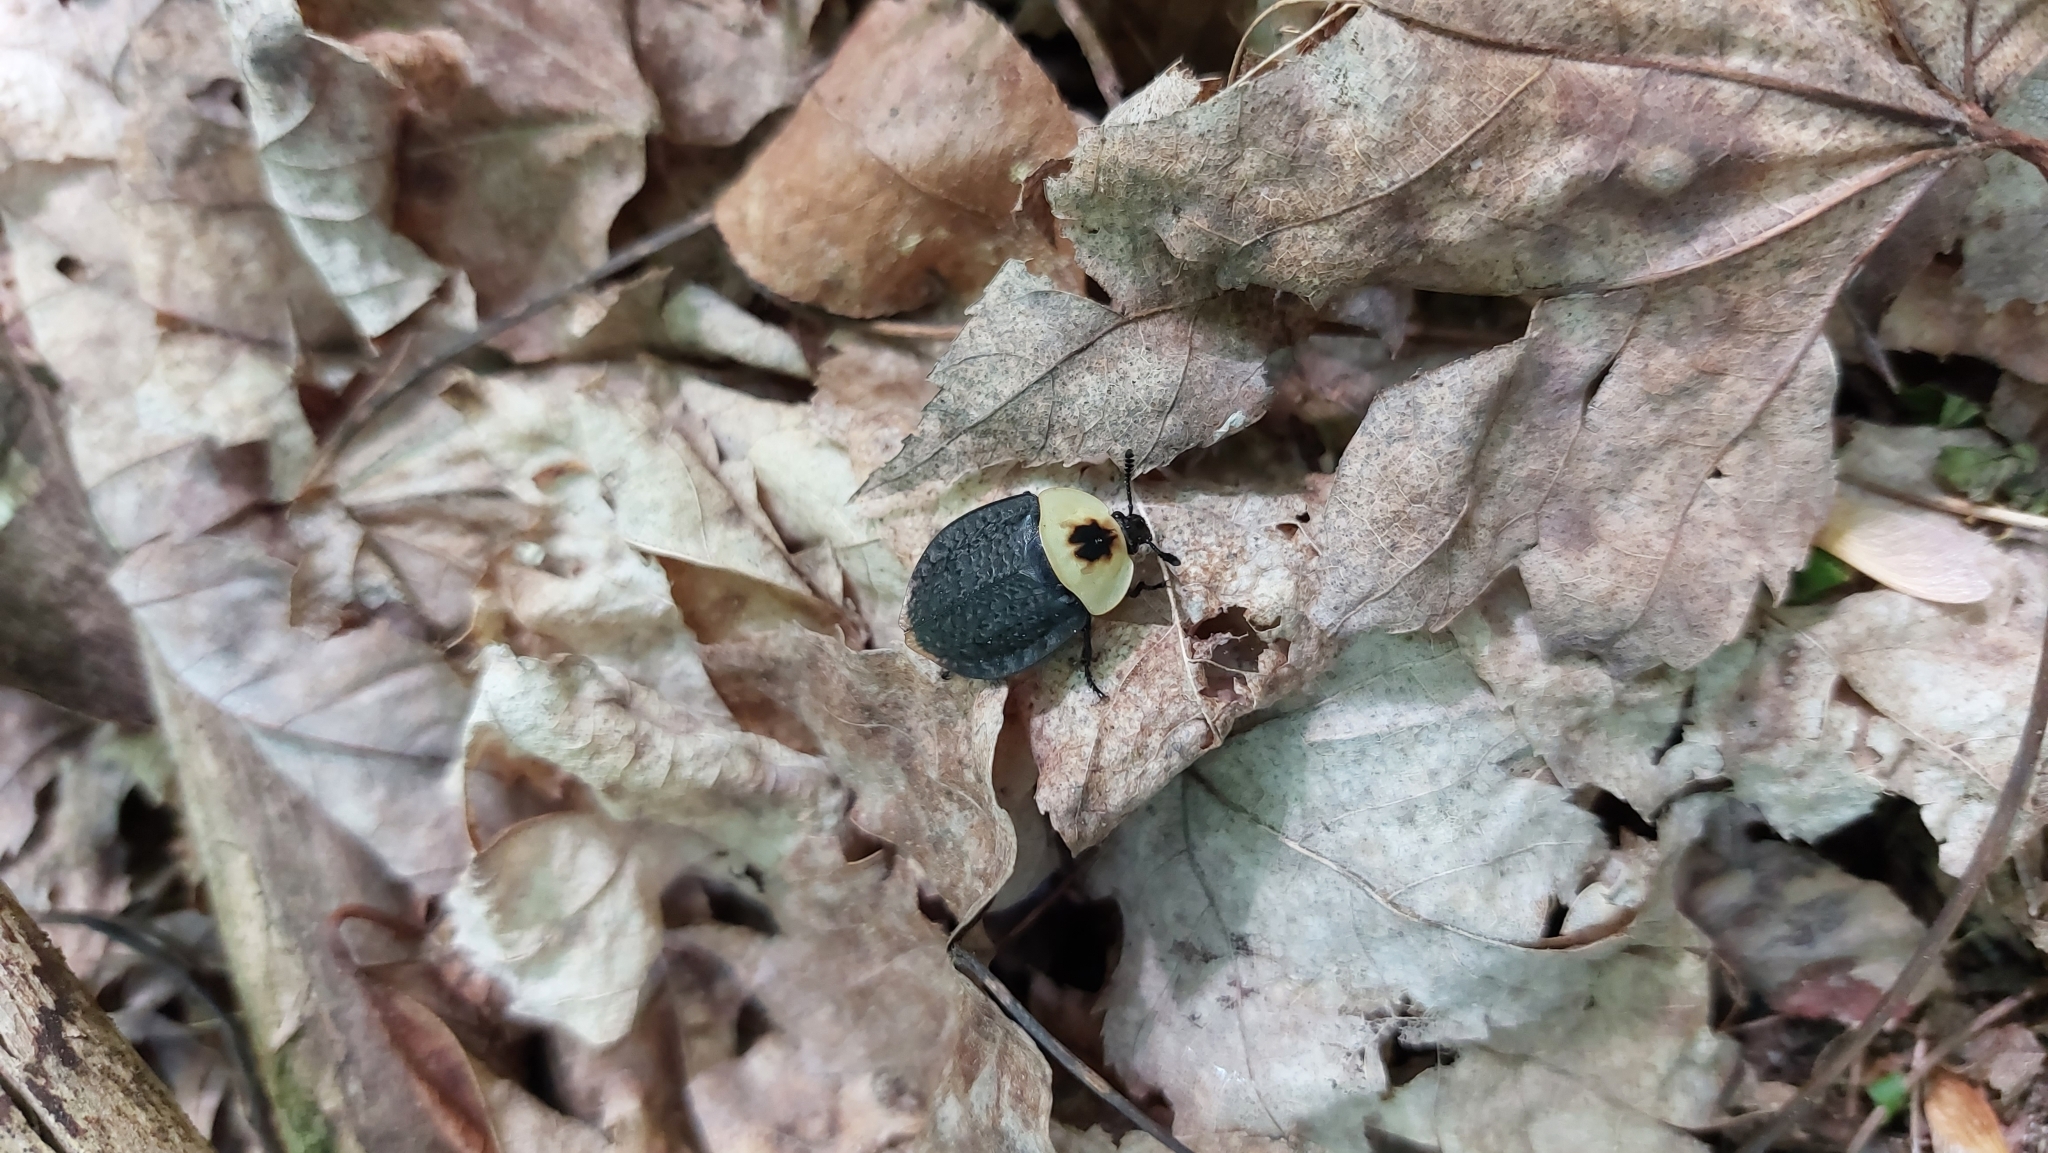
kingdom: Animalia
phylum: Arthropoda
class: Insecta
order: Coleoptera
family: Staphylinidae
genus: Necrophila
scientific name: Necrophila americana
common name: American carrion beetle
